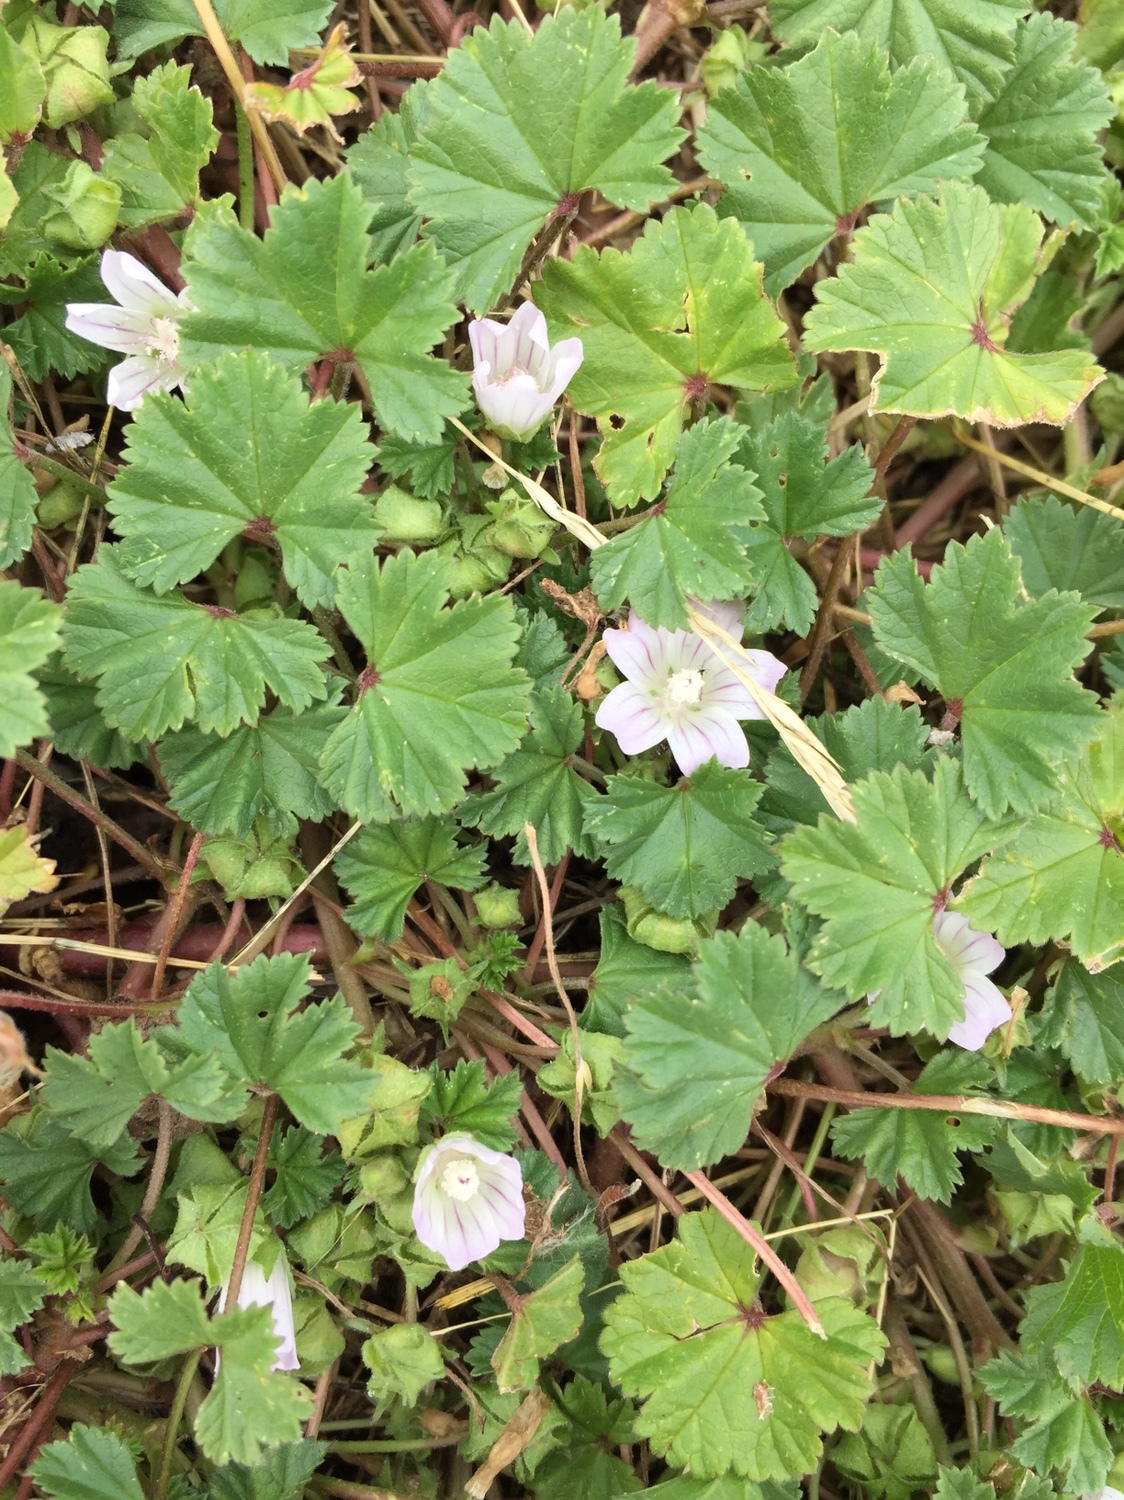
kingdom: Plantae
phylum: Tracheophyta
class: Magnoliopsida
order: Malvales
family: Malvaceae
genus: Malva
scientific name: Malva neglecta
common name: Common mallow
